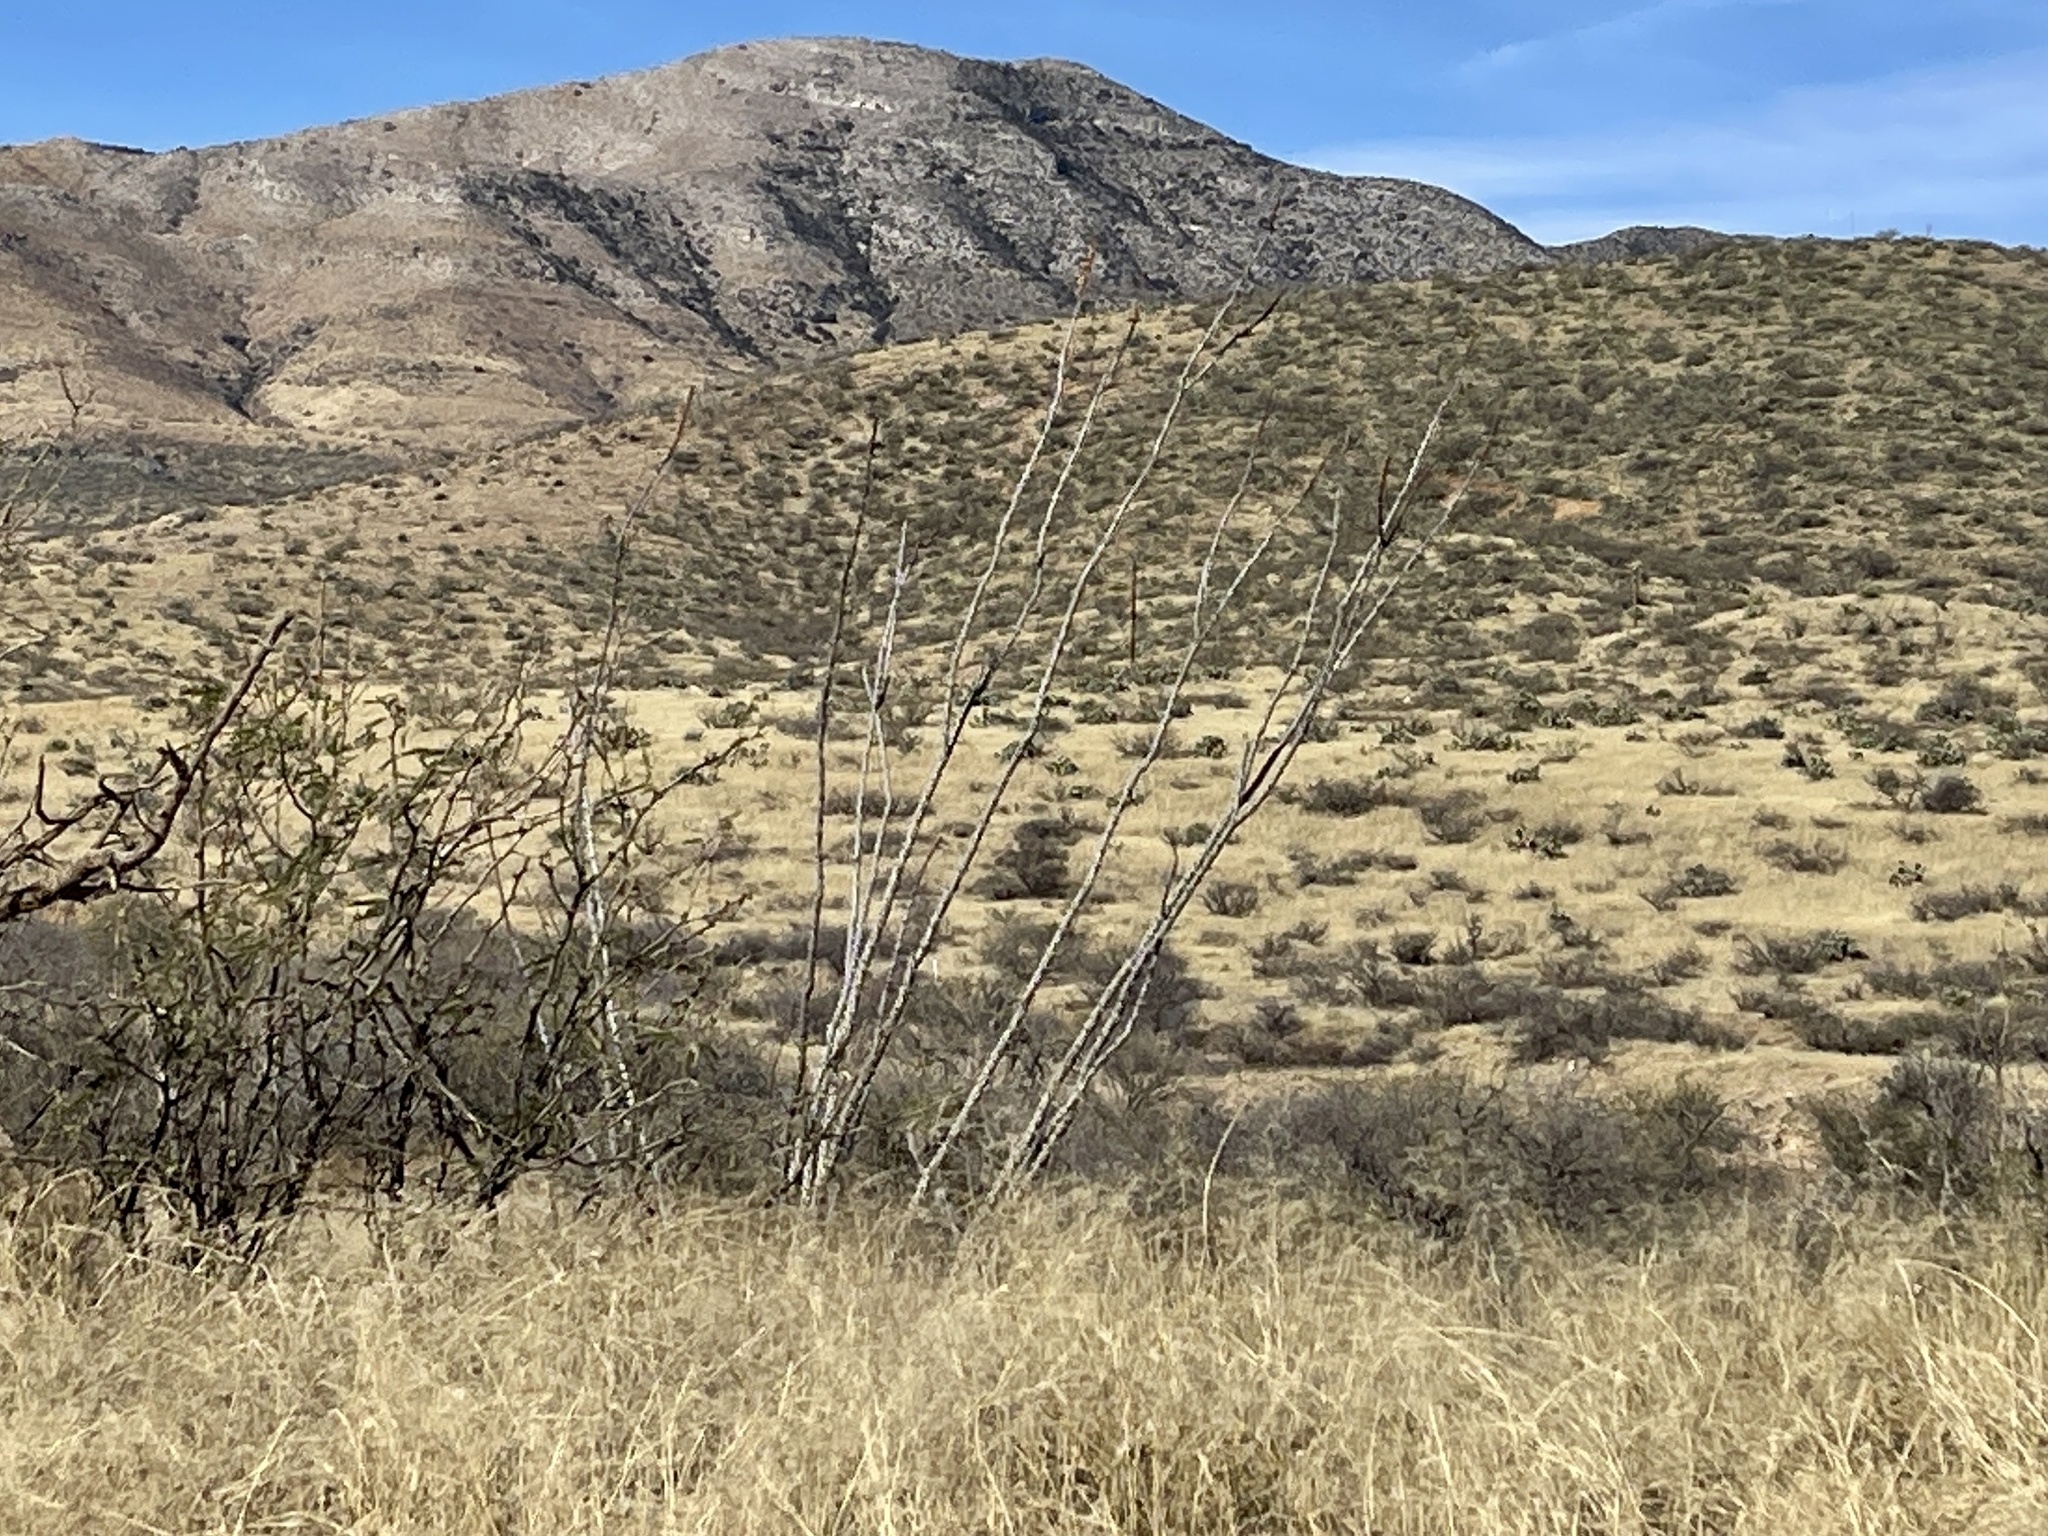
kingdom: Plantae
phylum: Tracheophyta
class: Magnoliopsida
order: Ericales
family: Fouquieriaceae
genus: Fouquieria
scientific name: Fouquieria splendens
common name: Vine-cactus
